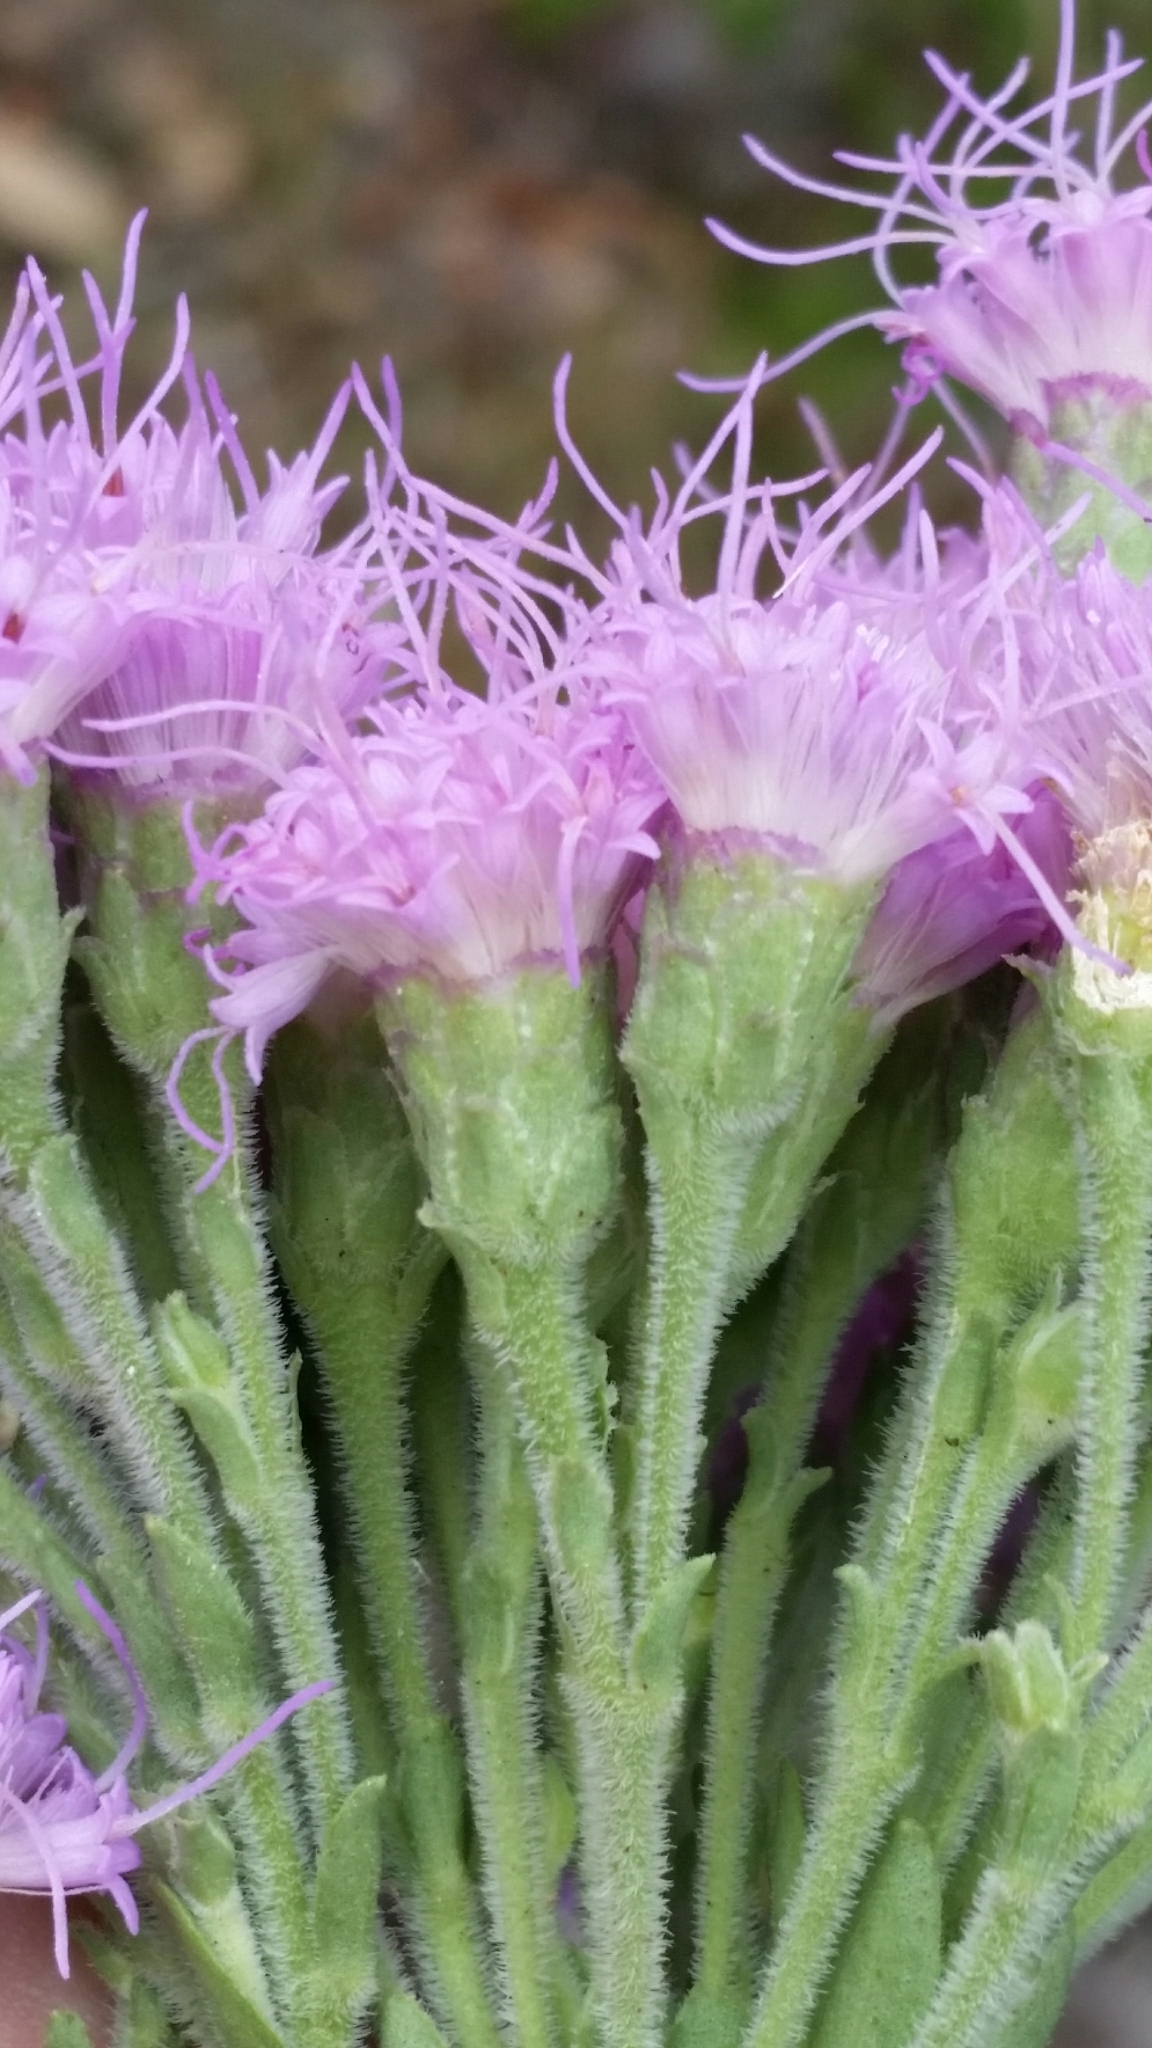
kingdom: Plantae
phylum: Tracheophyta
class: Magnoliopsida
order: Asterales
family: Asteraceae
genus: Carphephorus
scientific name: Carphephorus corymbosus
